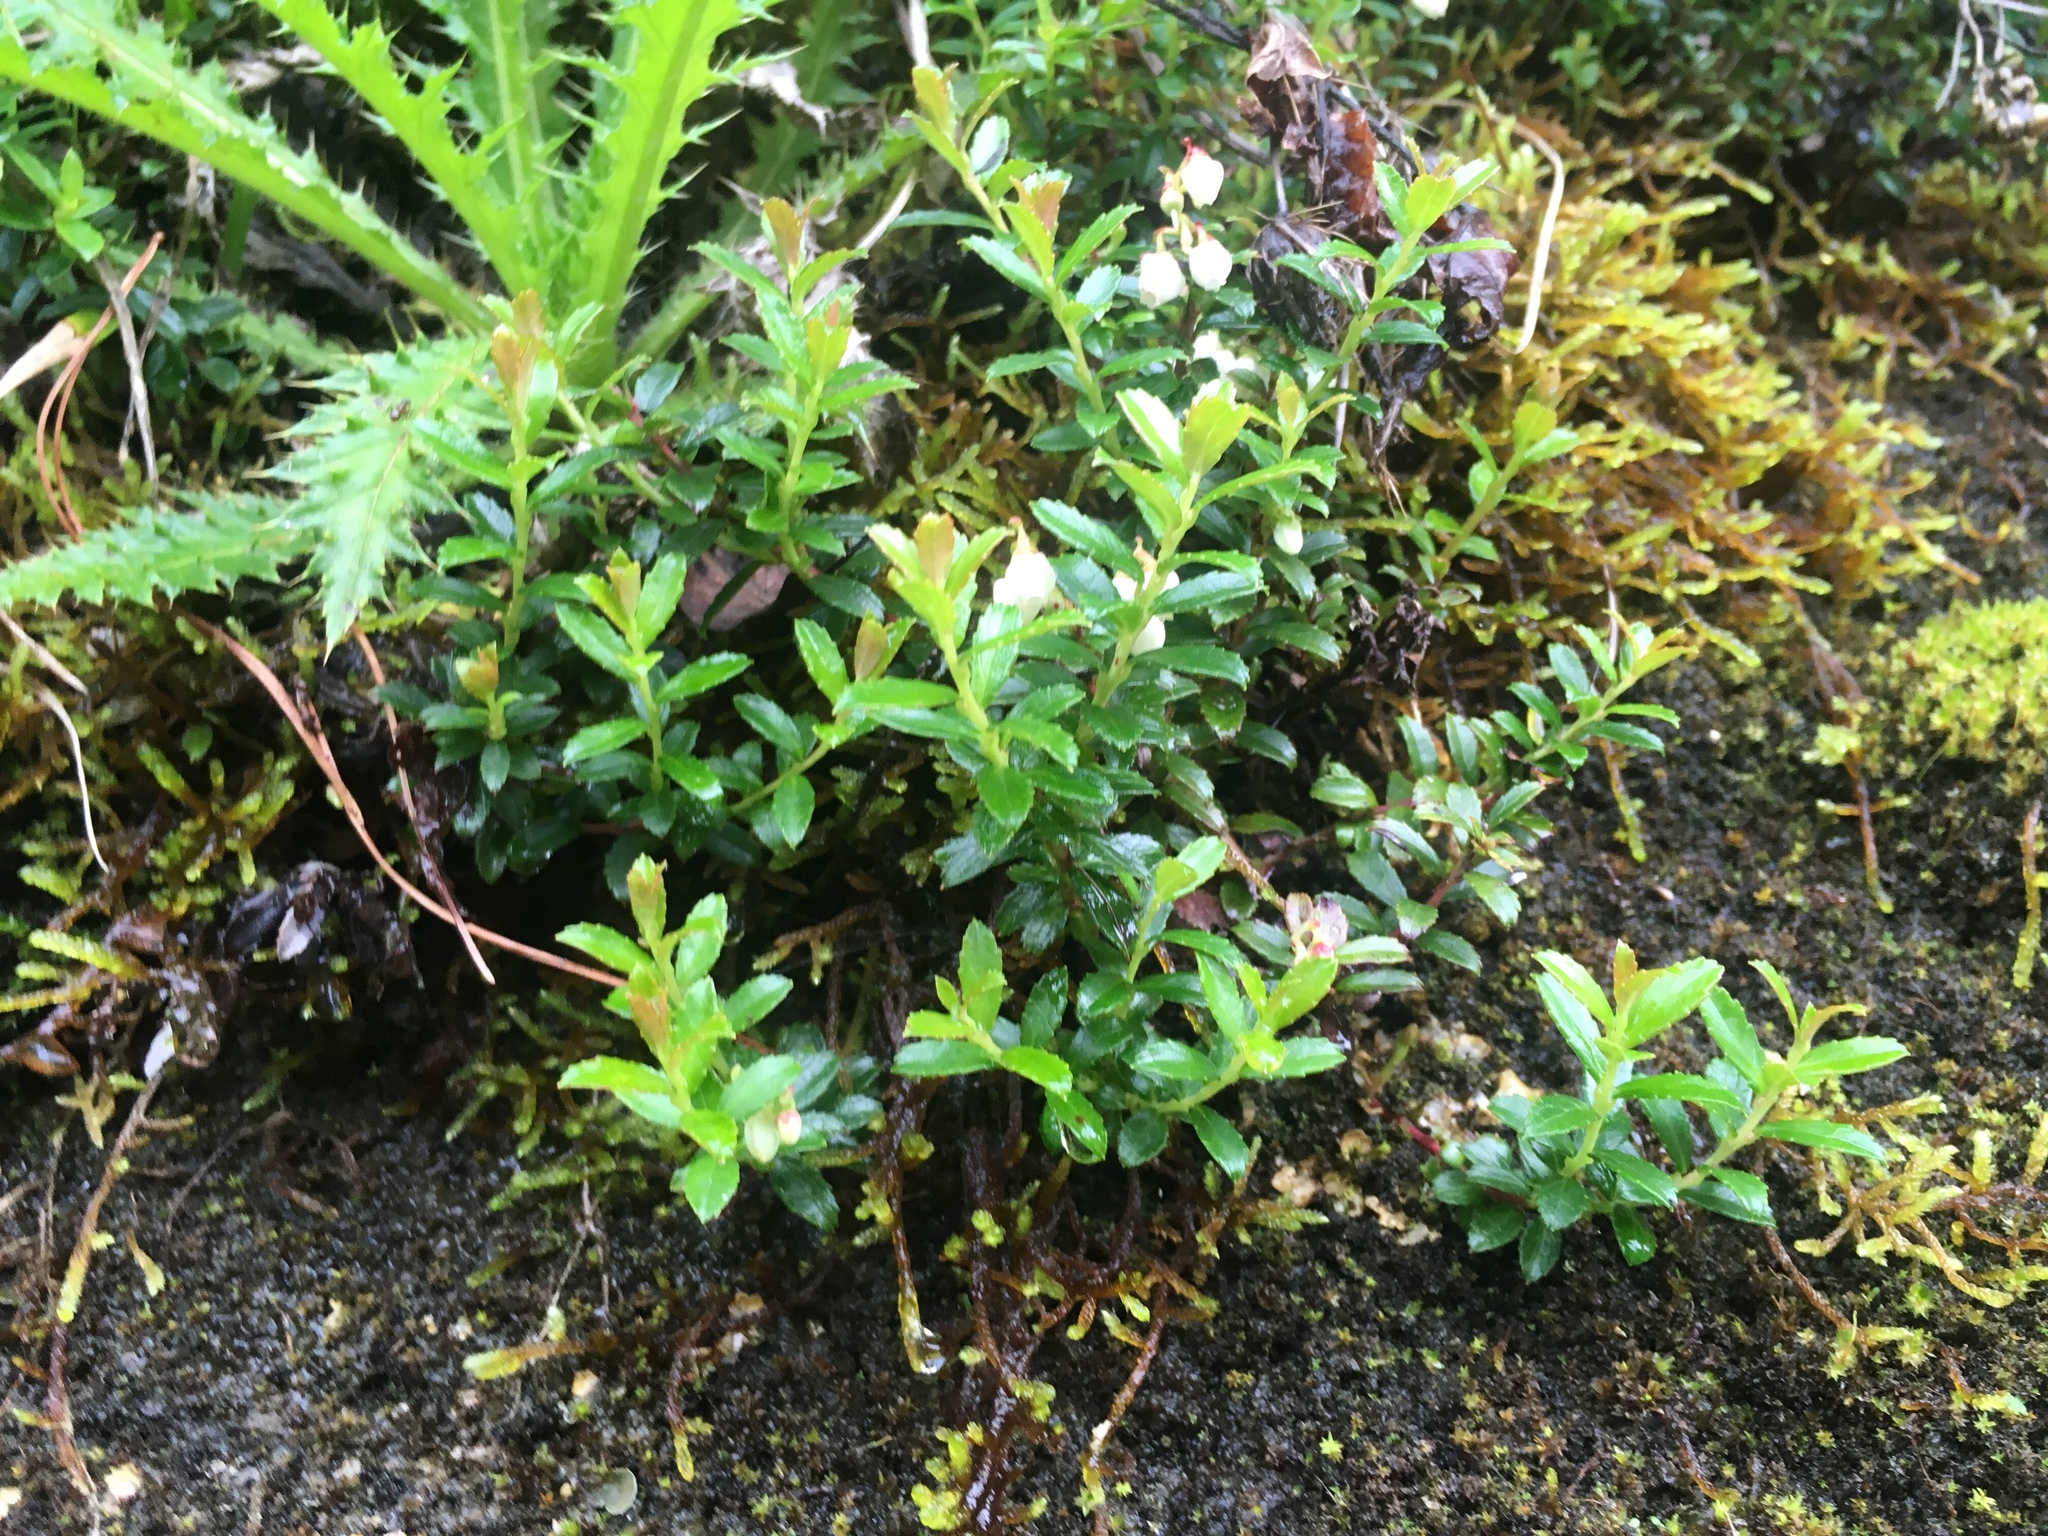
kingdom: Plantae
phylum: Tracheophyta
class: Magnoliopsida
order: Ericales
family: Ericaceae
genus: Gaultheria
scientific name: Gaultheria borneensis
